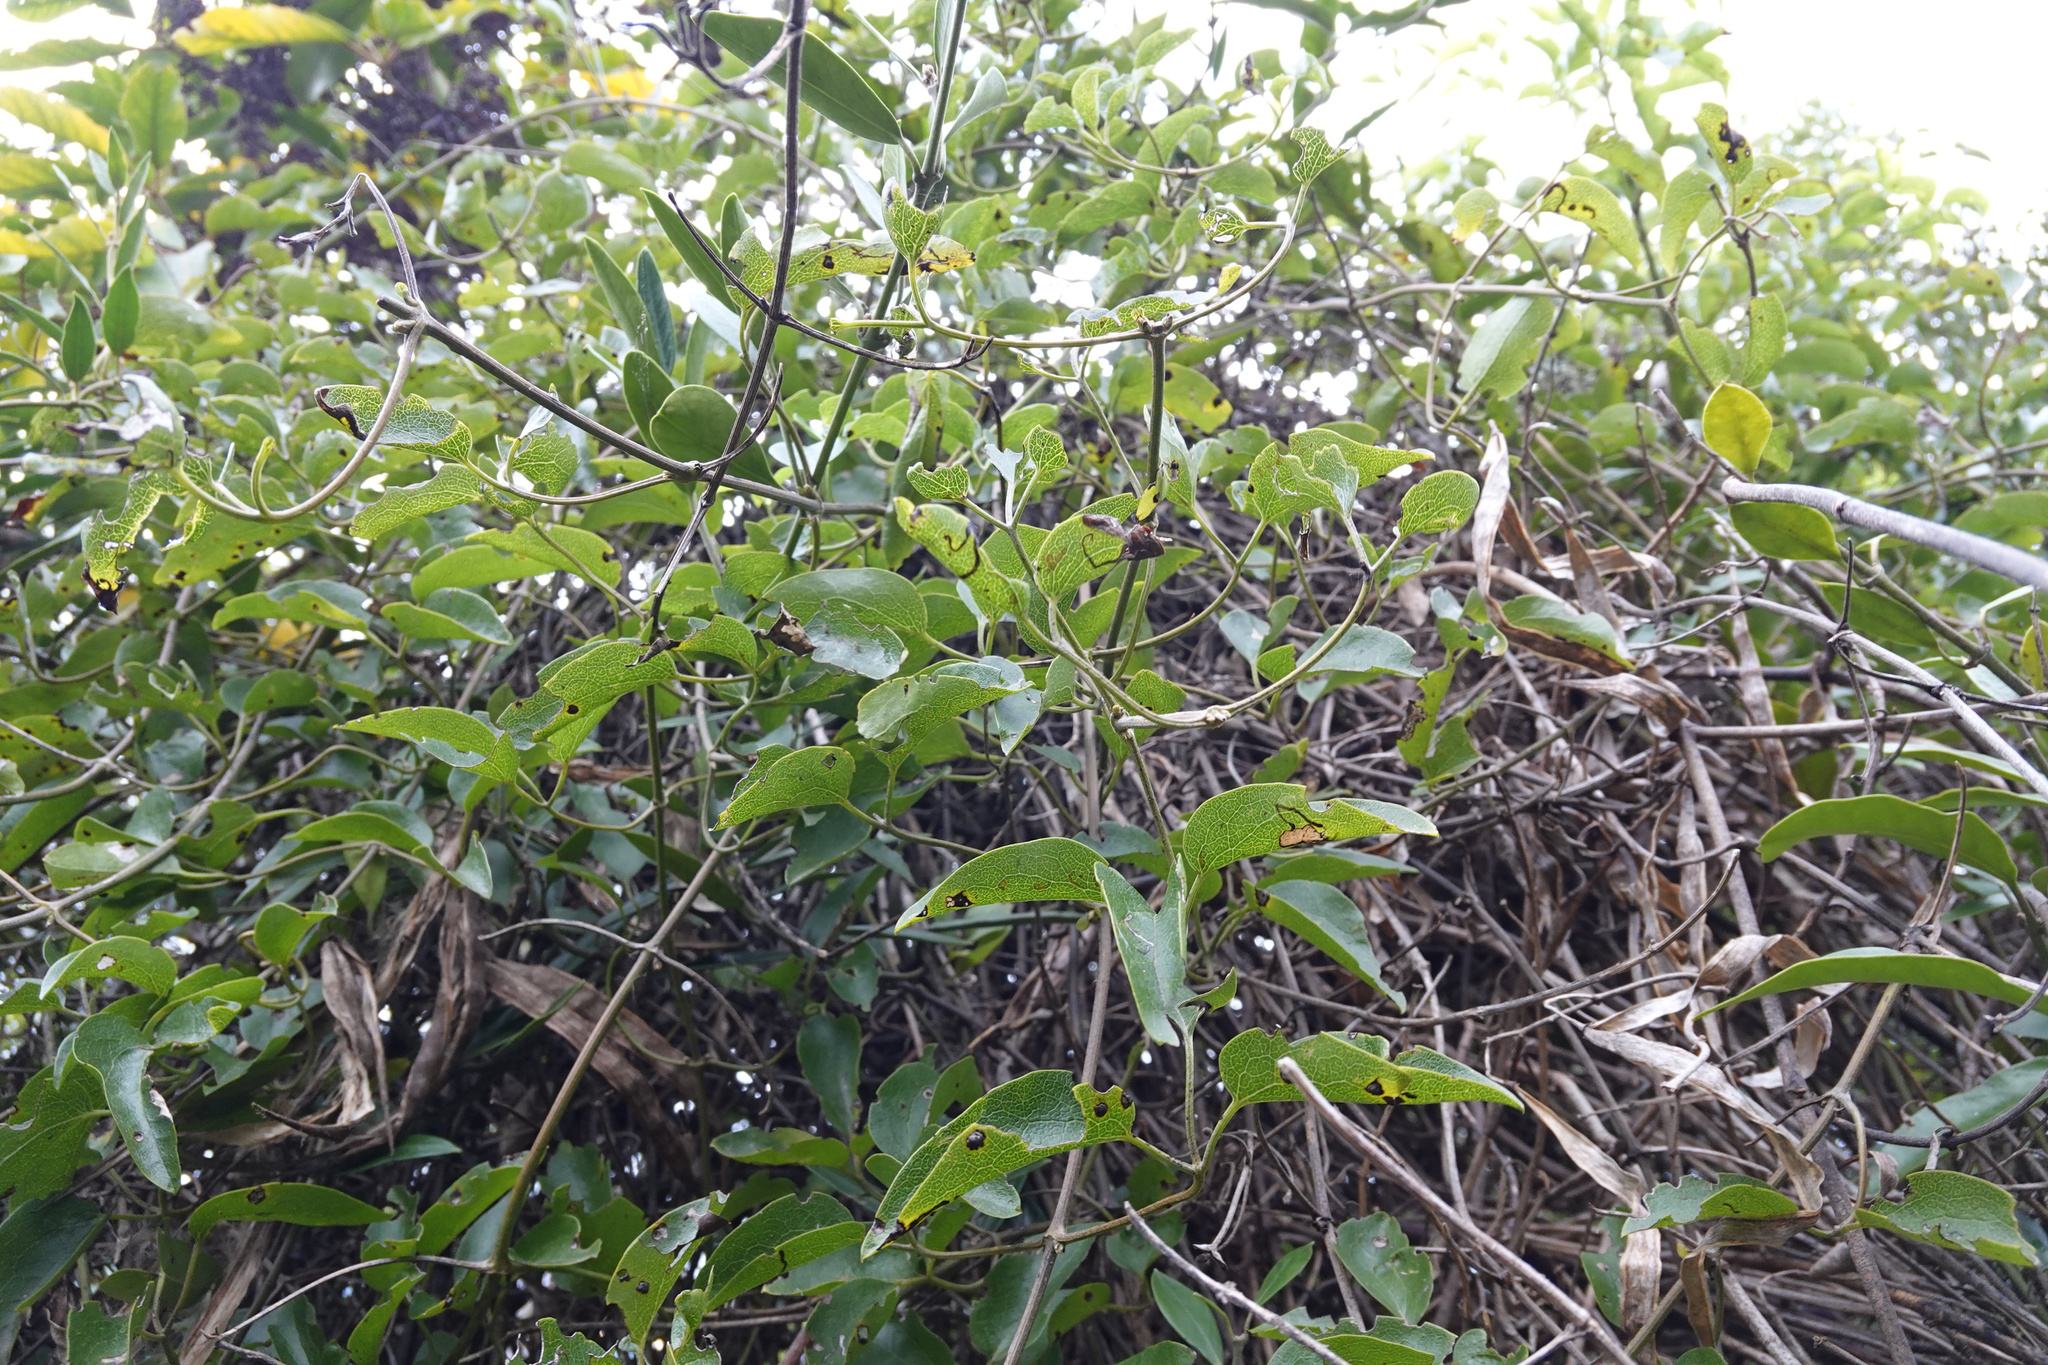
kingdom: Plantae
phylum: Tracheophyta
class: Magnoliopsida
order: Ranunculales
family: Ranunculaceae
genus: Clematis
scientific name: Clematis foetida
